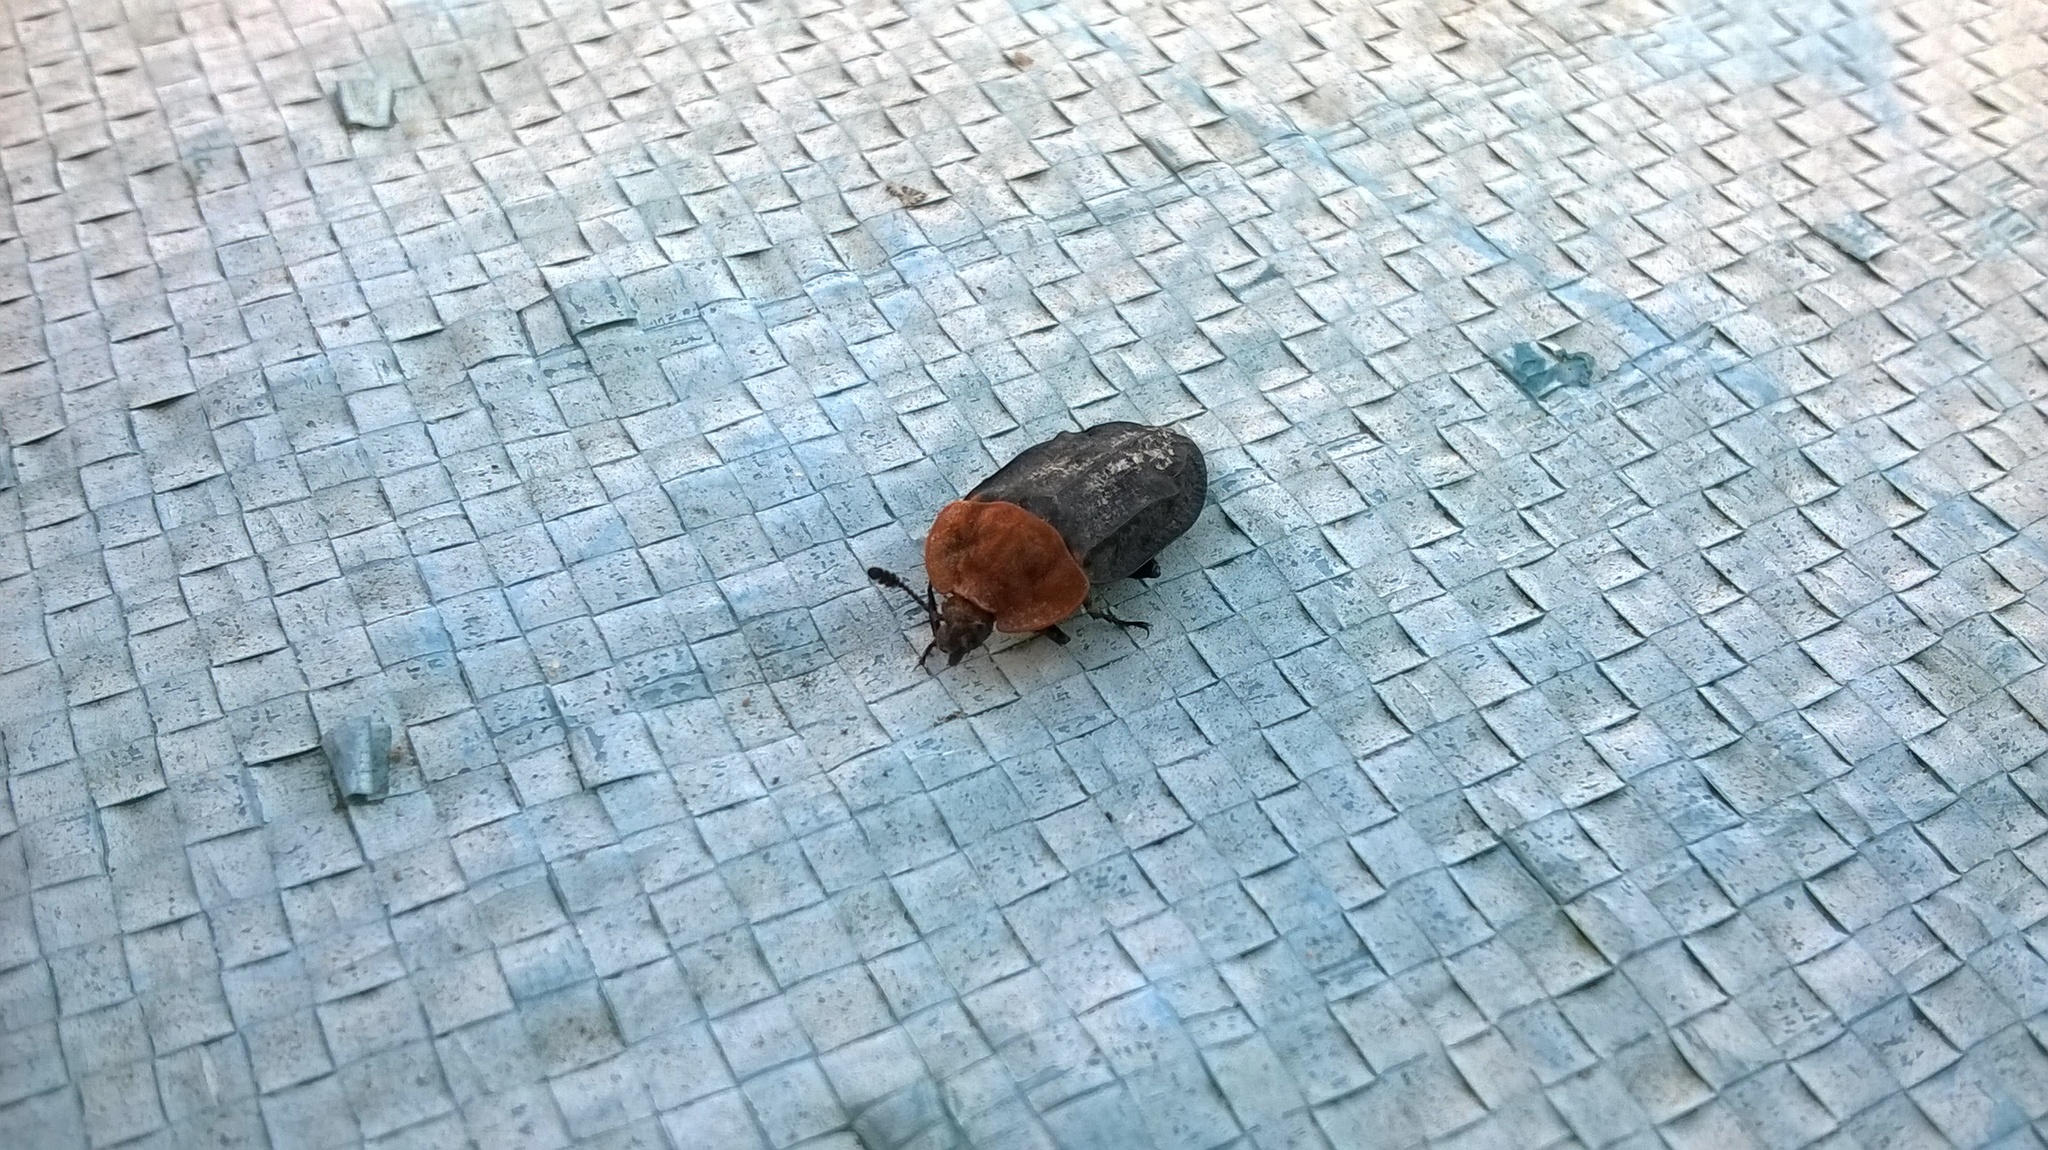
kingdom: Animalia
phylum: Arthropoda
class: Insecta
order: Coleoptera
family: Staphylinidae
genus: Oiceoptoma
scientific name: Oiceoptoma thoracicum
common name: Red-breasted carrion beetle
